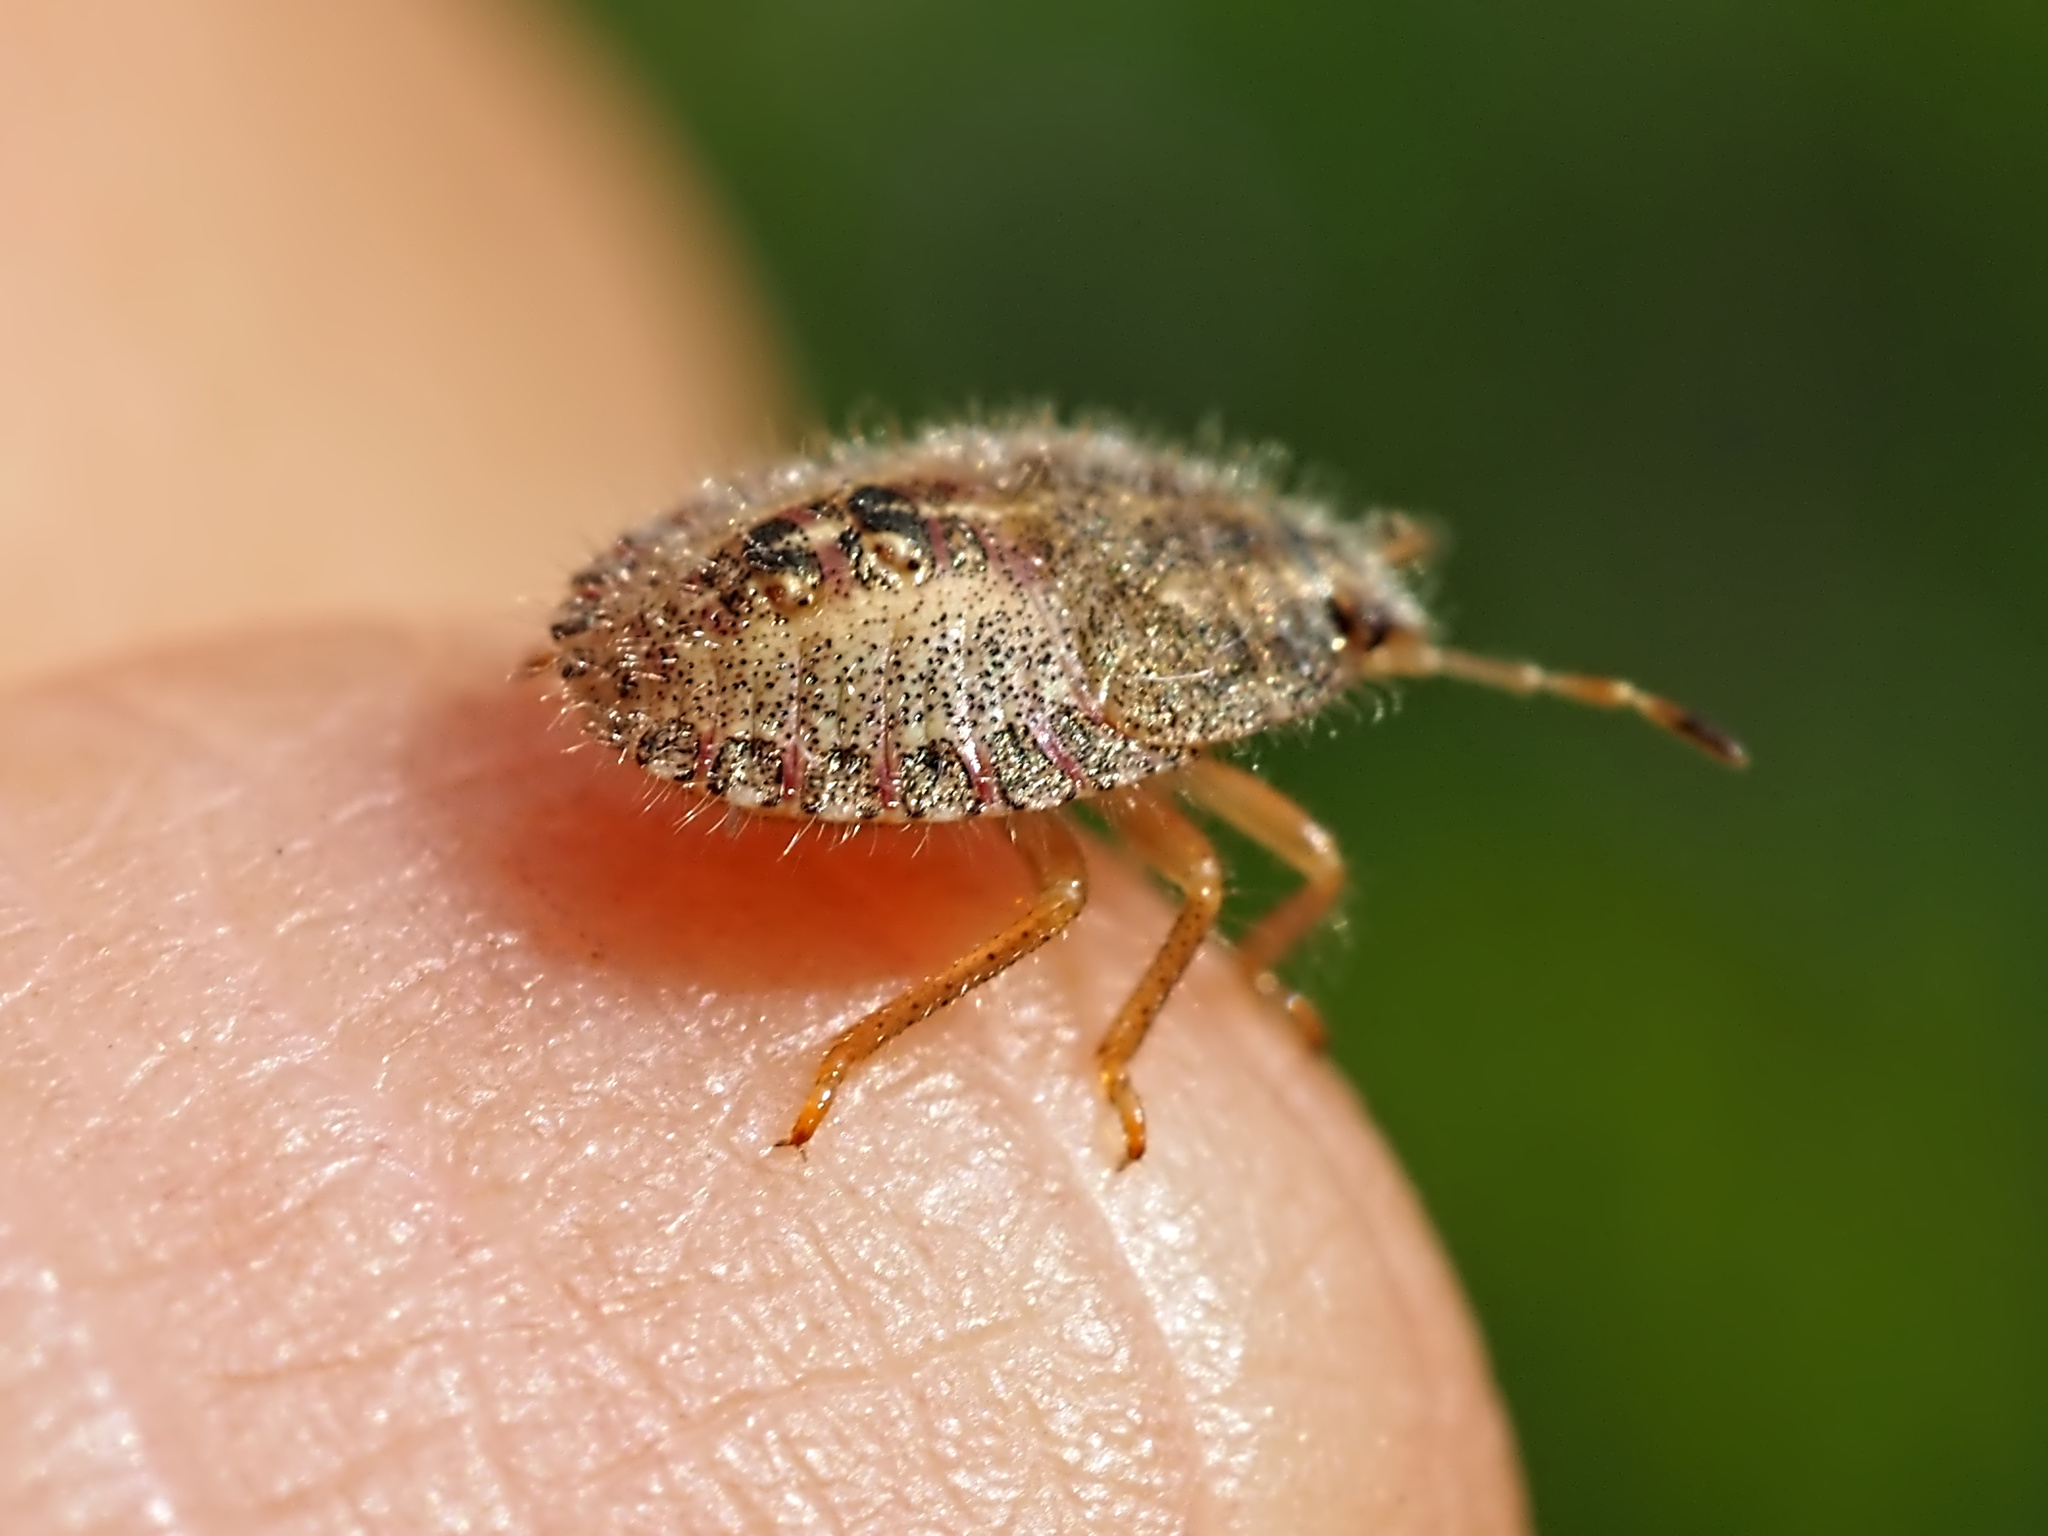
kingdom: Animalia
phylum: Arthropoda
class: Insecta
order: Hemiptera
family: Pentatomidae
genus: Dolycoris
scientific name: Dolycoris baccarum
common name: Sloe bug
